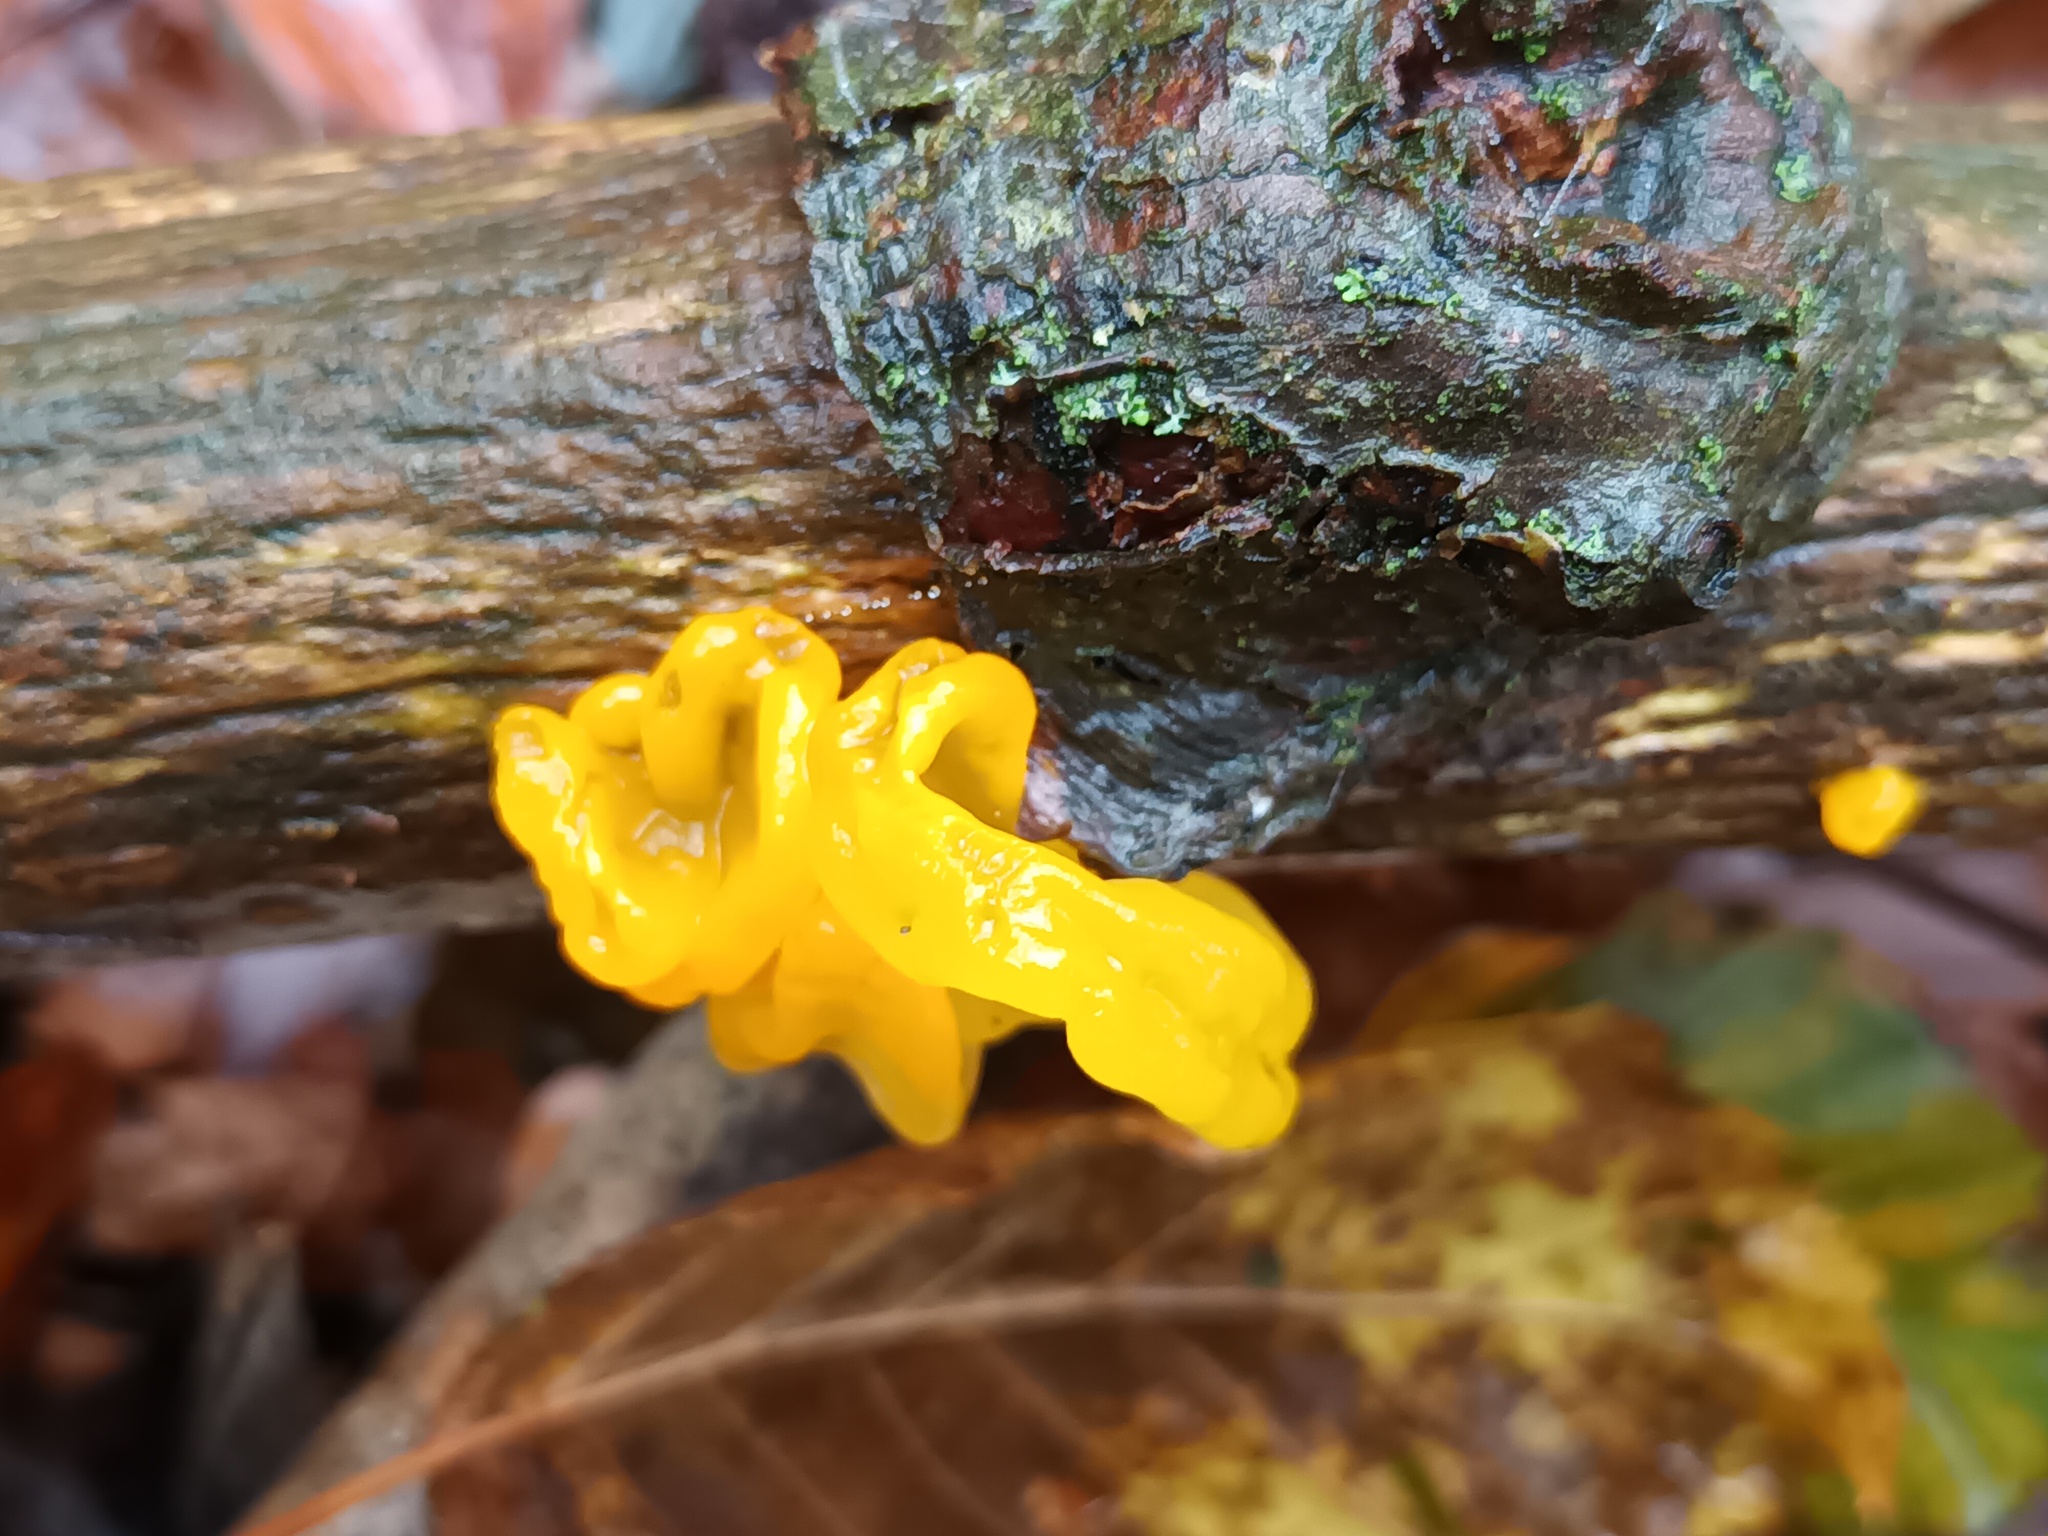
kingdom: Fungi
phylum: Basidiomycota
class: Tremellomycetes
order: Tremellales
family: Tremellaceae
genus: Tremella
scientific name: Tremella mesenterica
